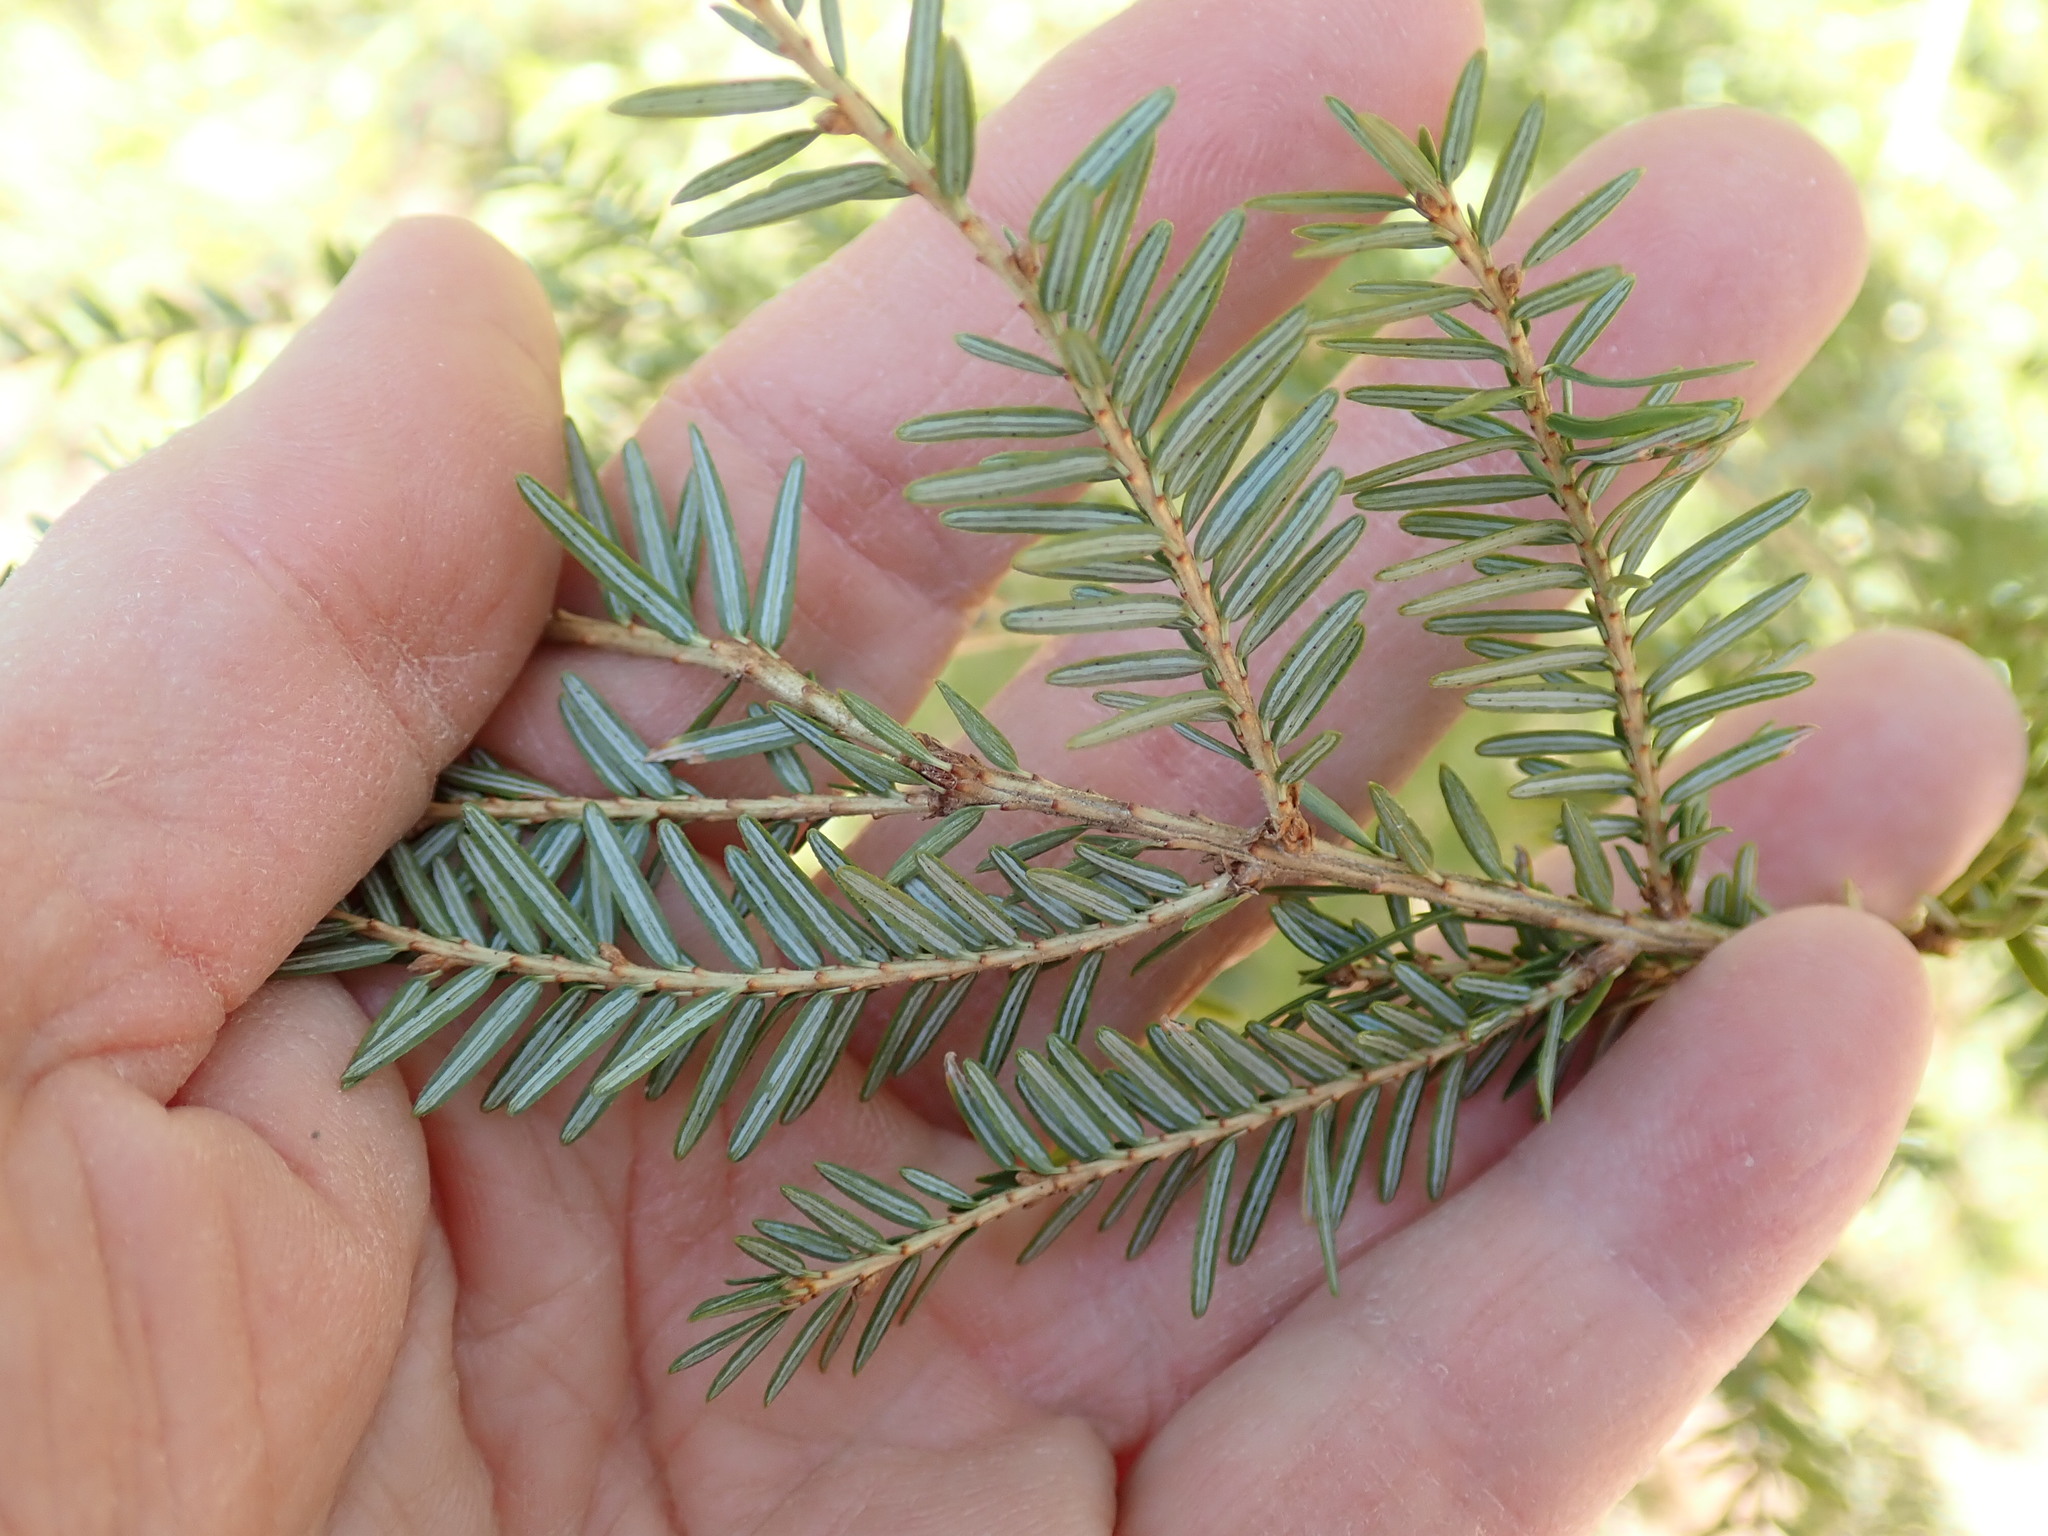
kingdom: Plantae
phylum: Tracheophyta
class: Pinopsida
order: Pinales
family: Pinaceae
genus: Tsuga
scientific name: Tsuga canadensis
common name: Eastern hemlock
